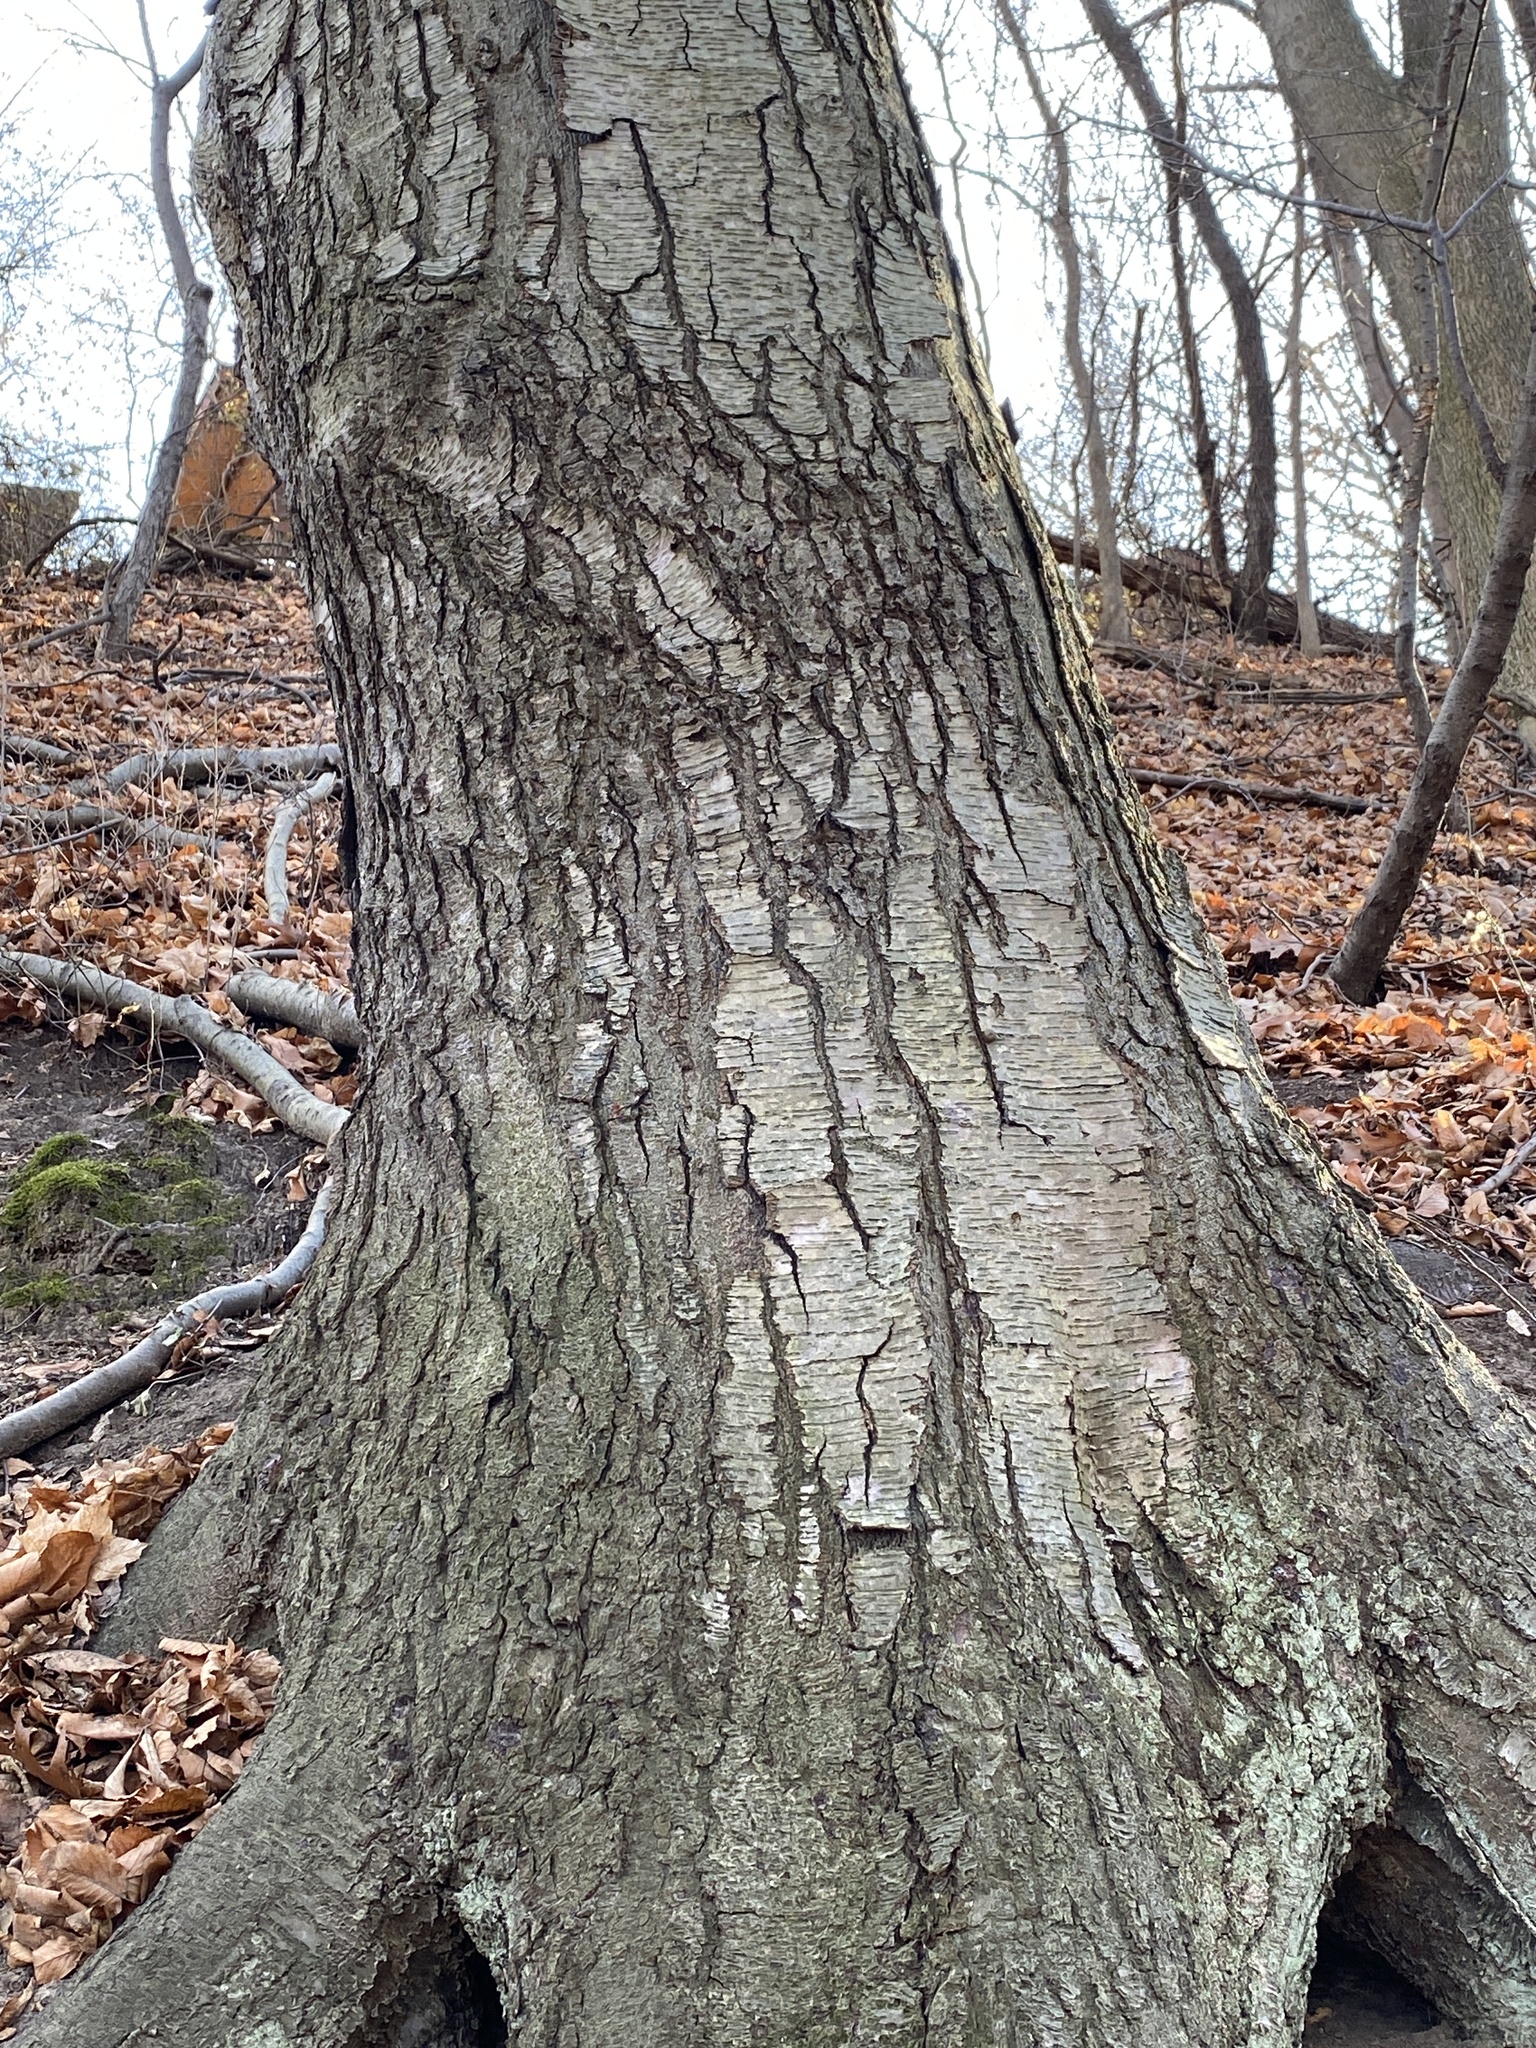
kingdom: Plantae
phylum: Tracheophyta
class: Magnoliopsida
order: Fagales
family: Betulaceae
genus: Betula
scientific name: Betula lenta
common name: Black birch
